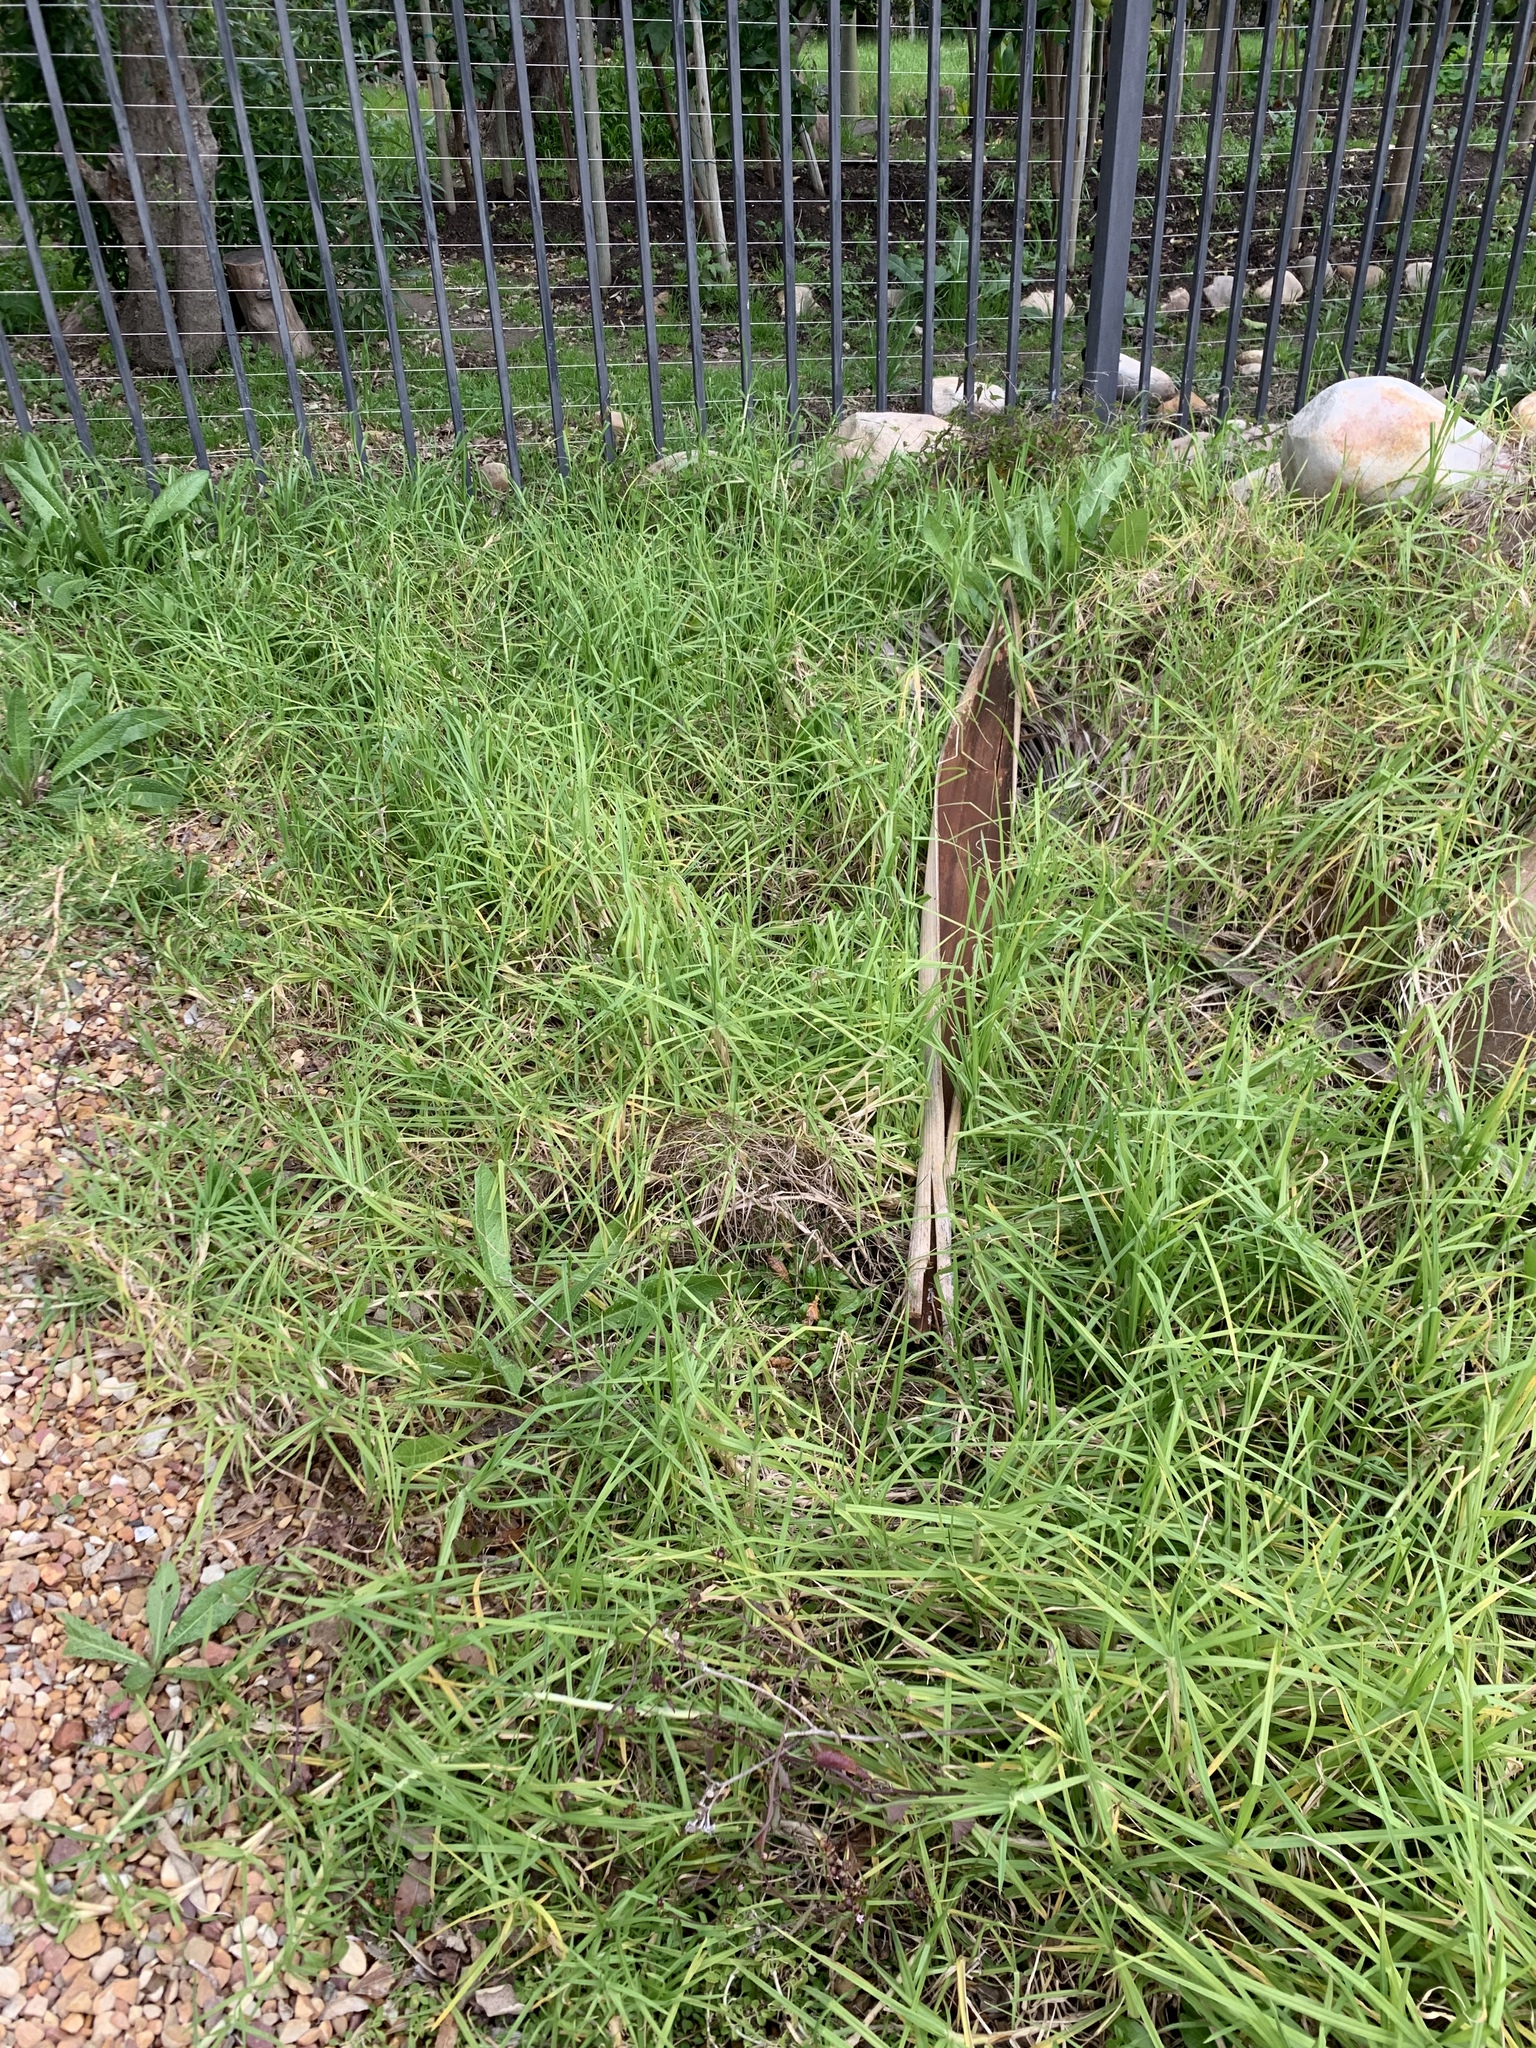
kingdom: Plantae
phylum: Tracheophyta
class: Liliopsida
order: Poales
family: Poaceae
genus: Cenchrus
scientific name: Cenchrus clandestinus
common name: Kikuyugrass
